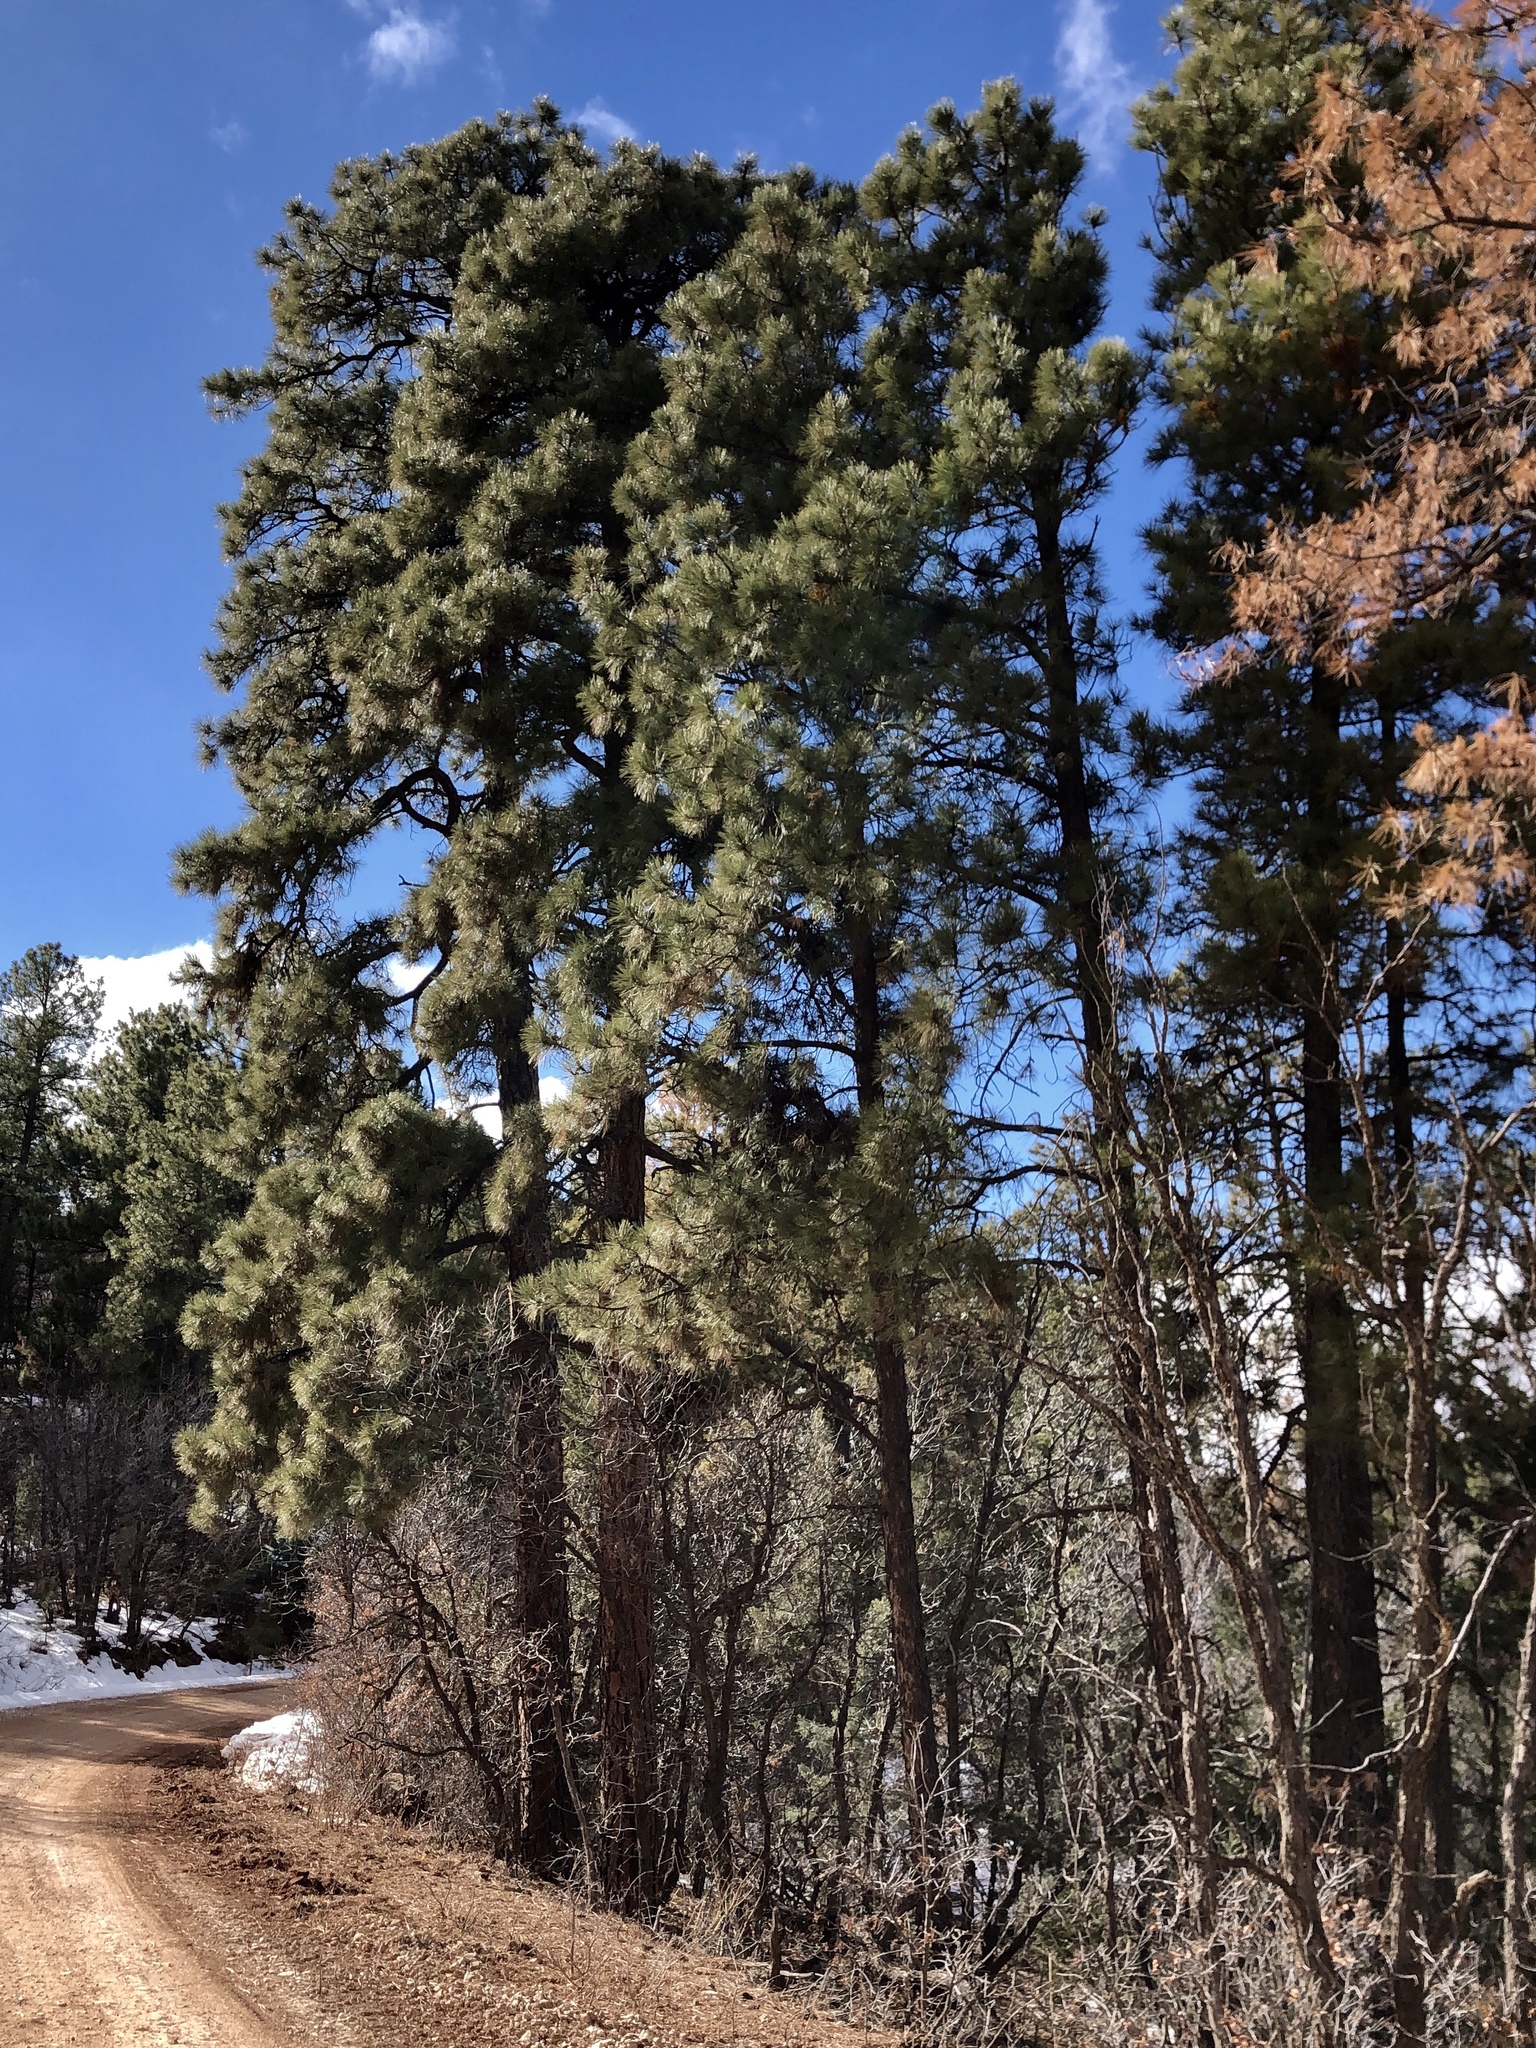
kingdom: Plantae
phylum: Tracheophyta
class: Pinopsida
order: Pinales
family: Pinaceae
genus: Pinus
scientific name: Pinus ponderosa
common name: Western yellow-pine
